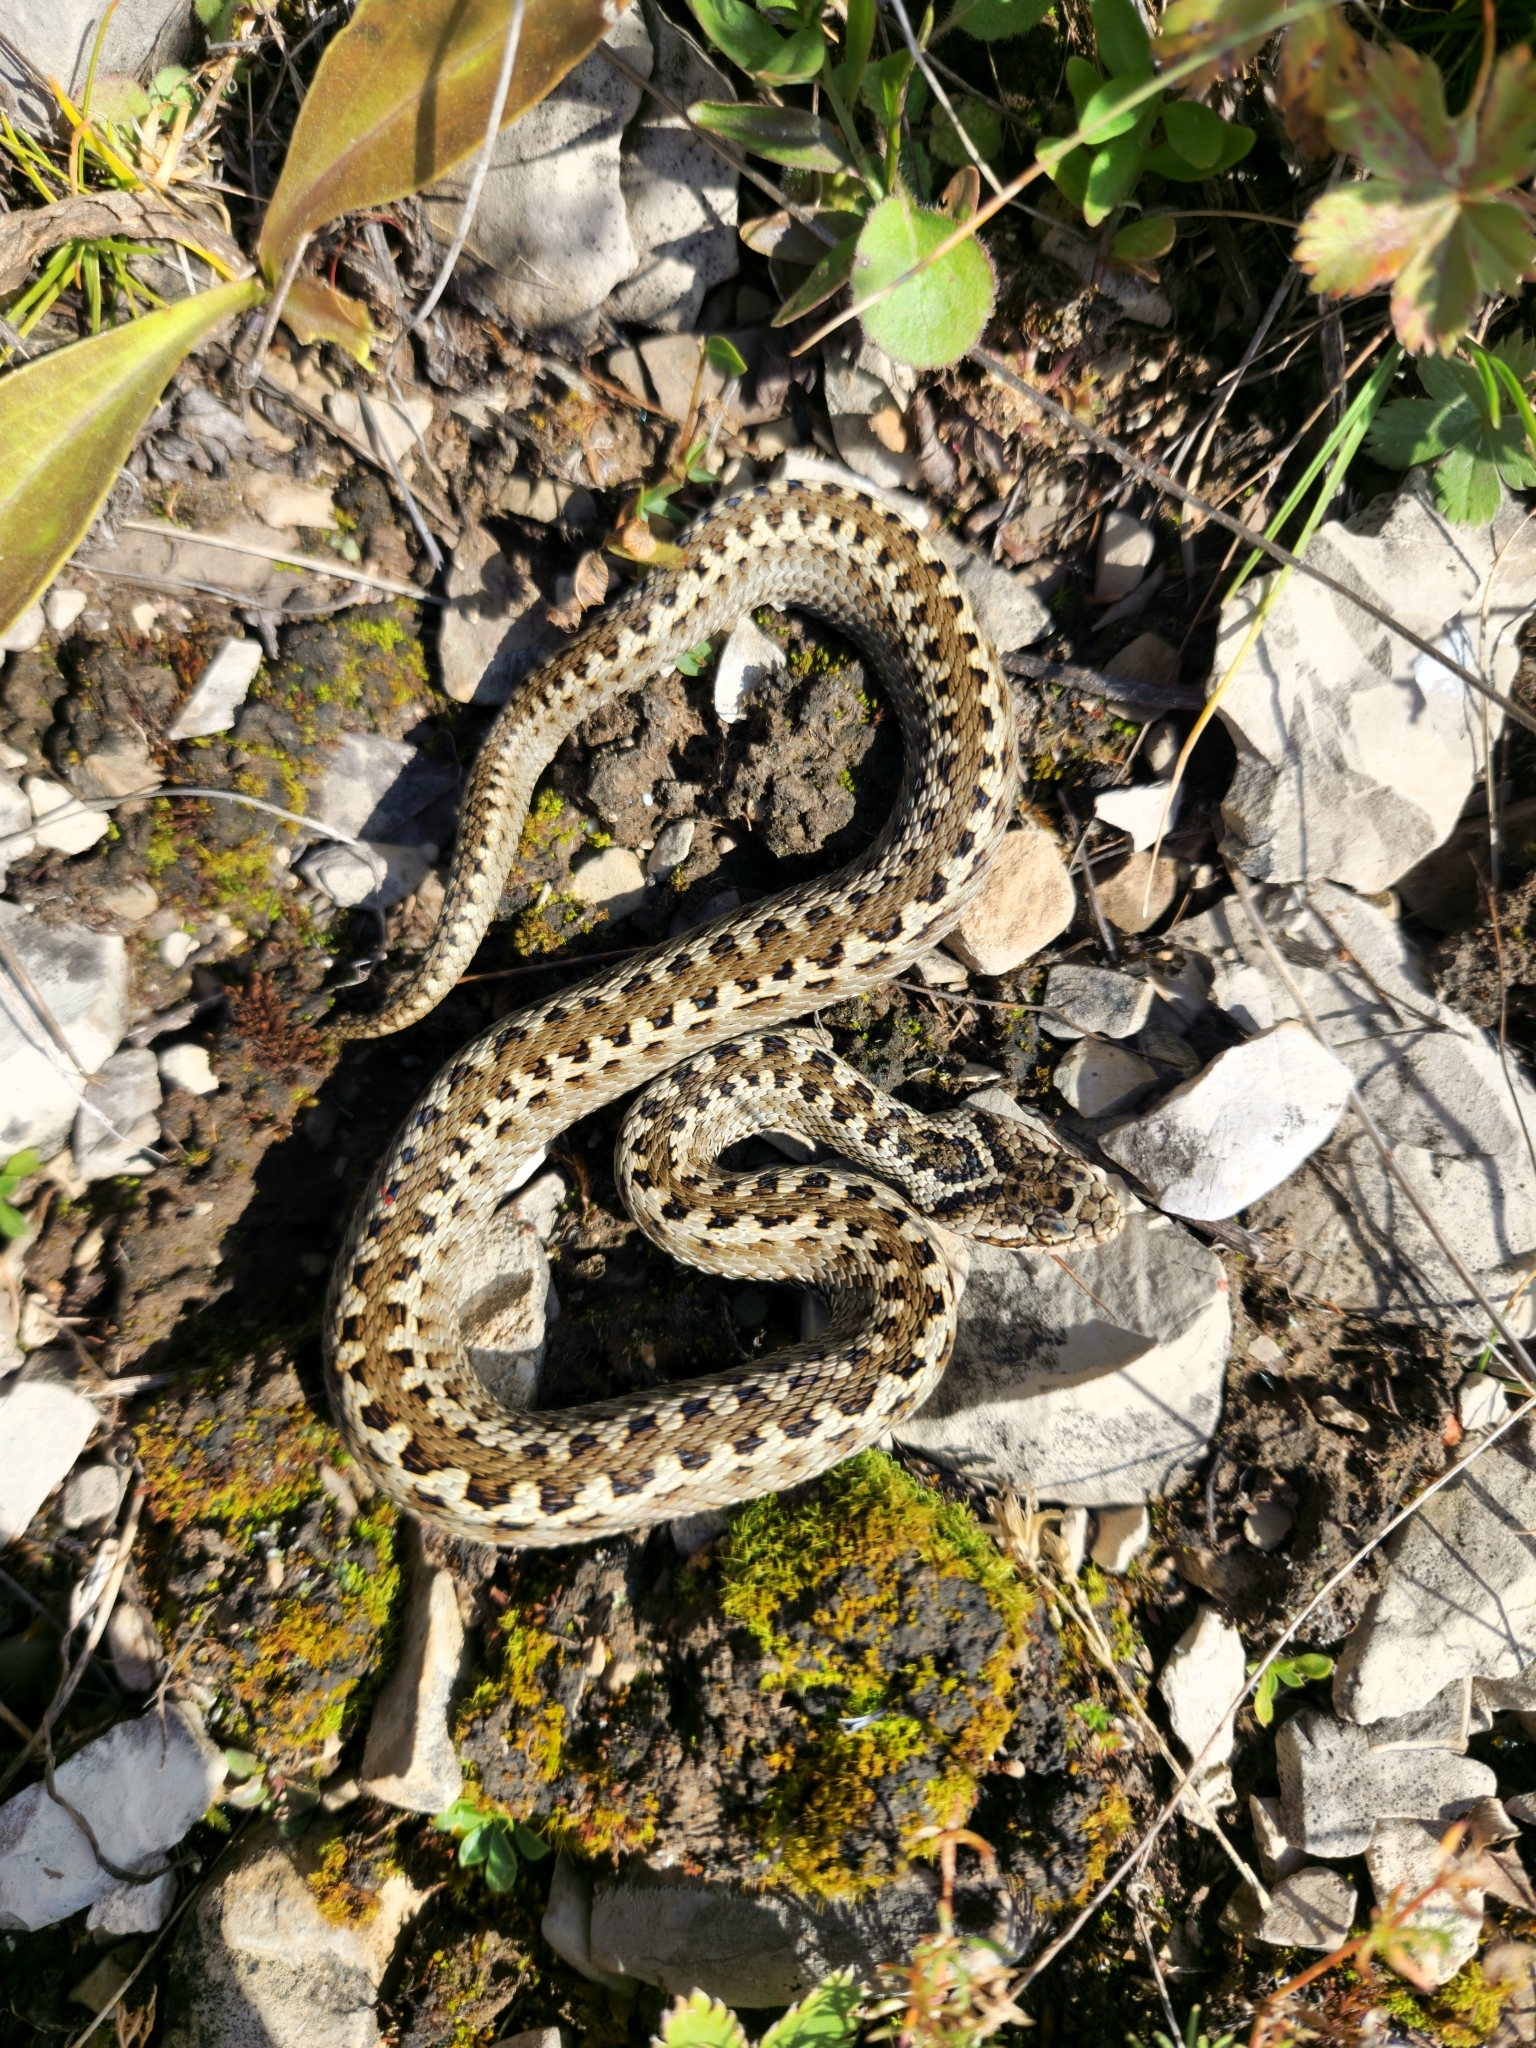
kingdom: Animalia
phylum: Chordata
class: Squamata
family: Viperidae
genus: Vipera
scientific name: Vipera renardi
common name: Eastern steppe viper
